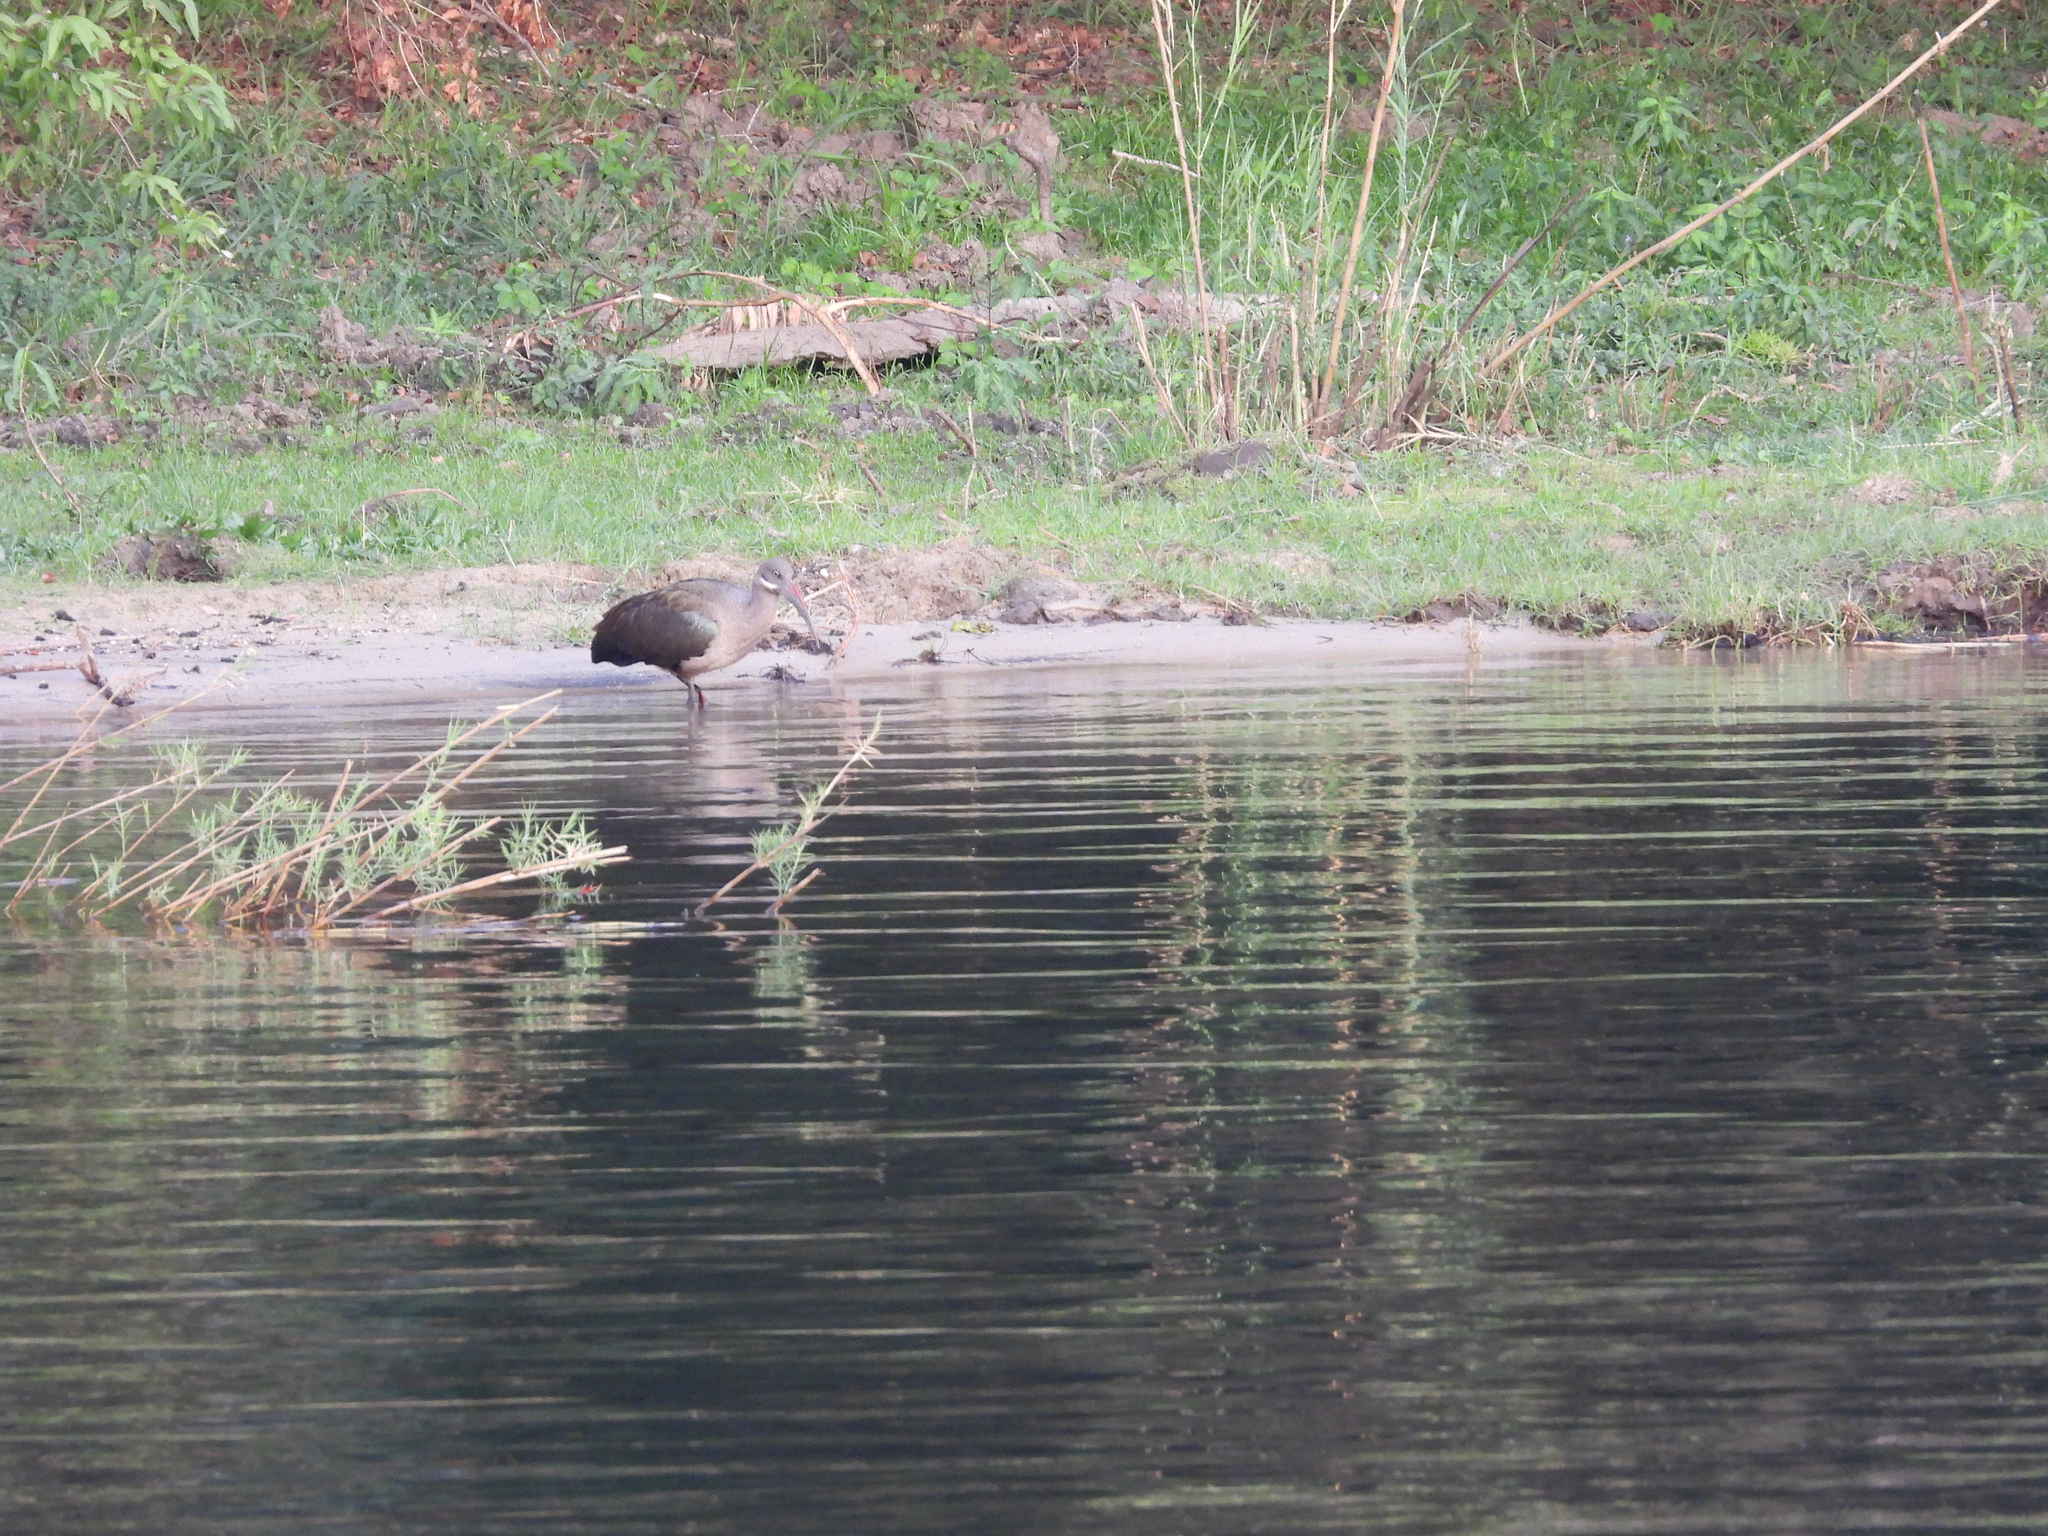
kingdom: Animalia
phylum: Chordata
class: Aves
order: Pelecaniformes
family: Threskiornithidae
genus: Bostrychia
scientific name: Bostrychia hagedash
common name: Hadada ibis
